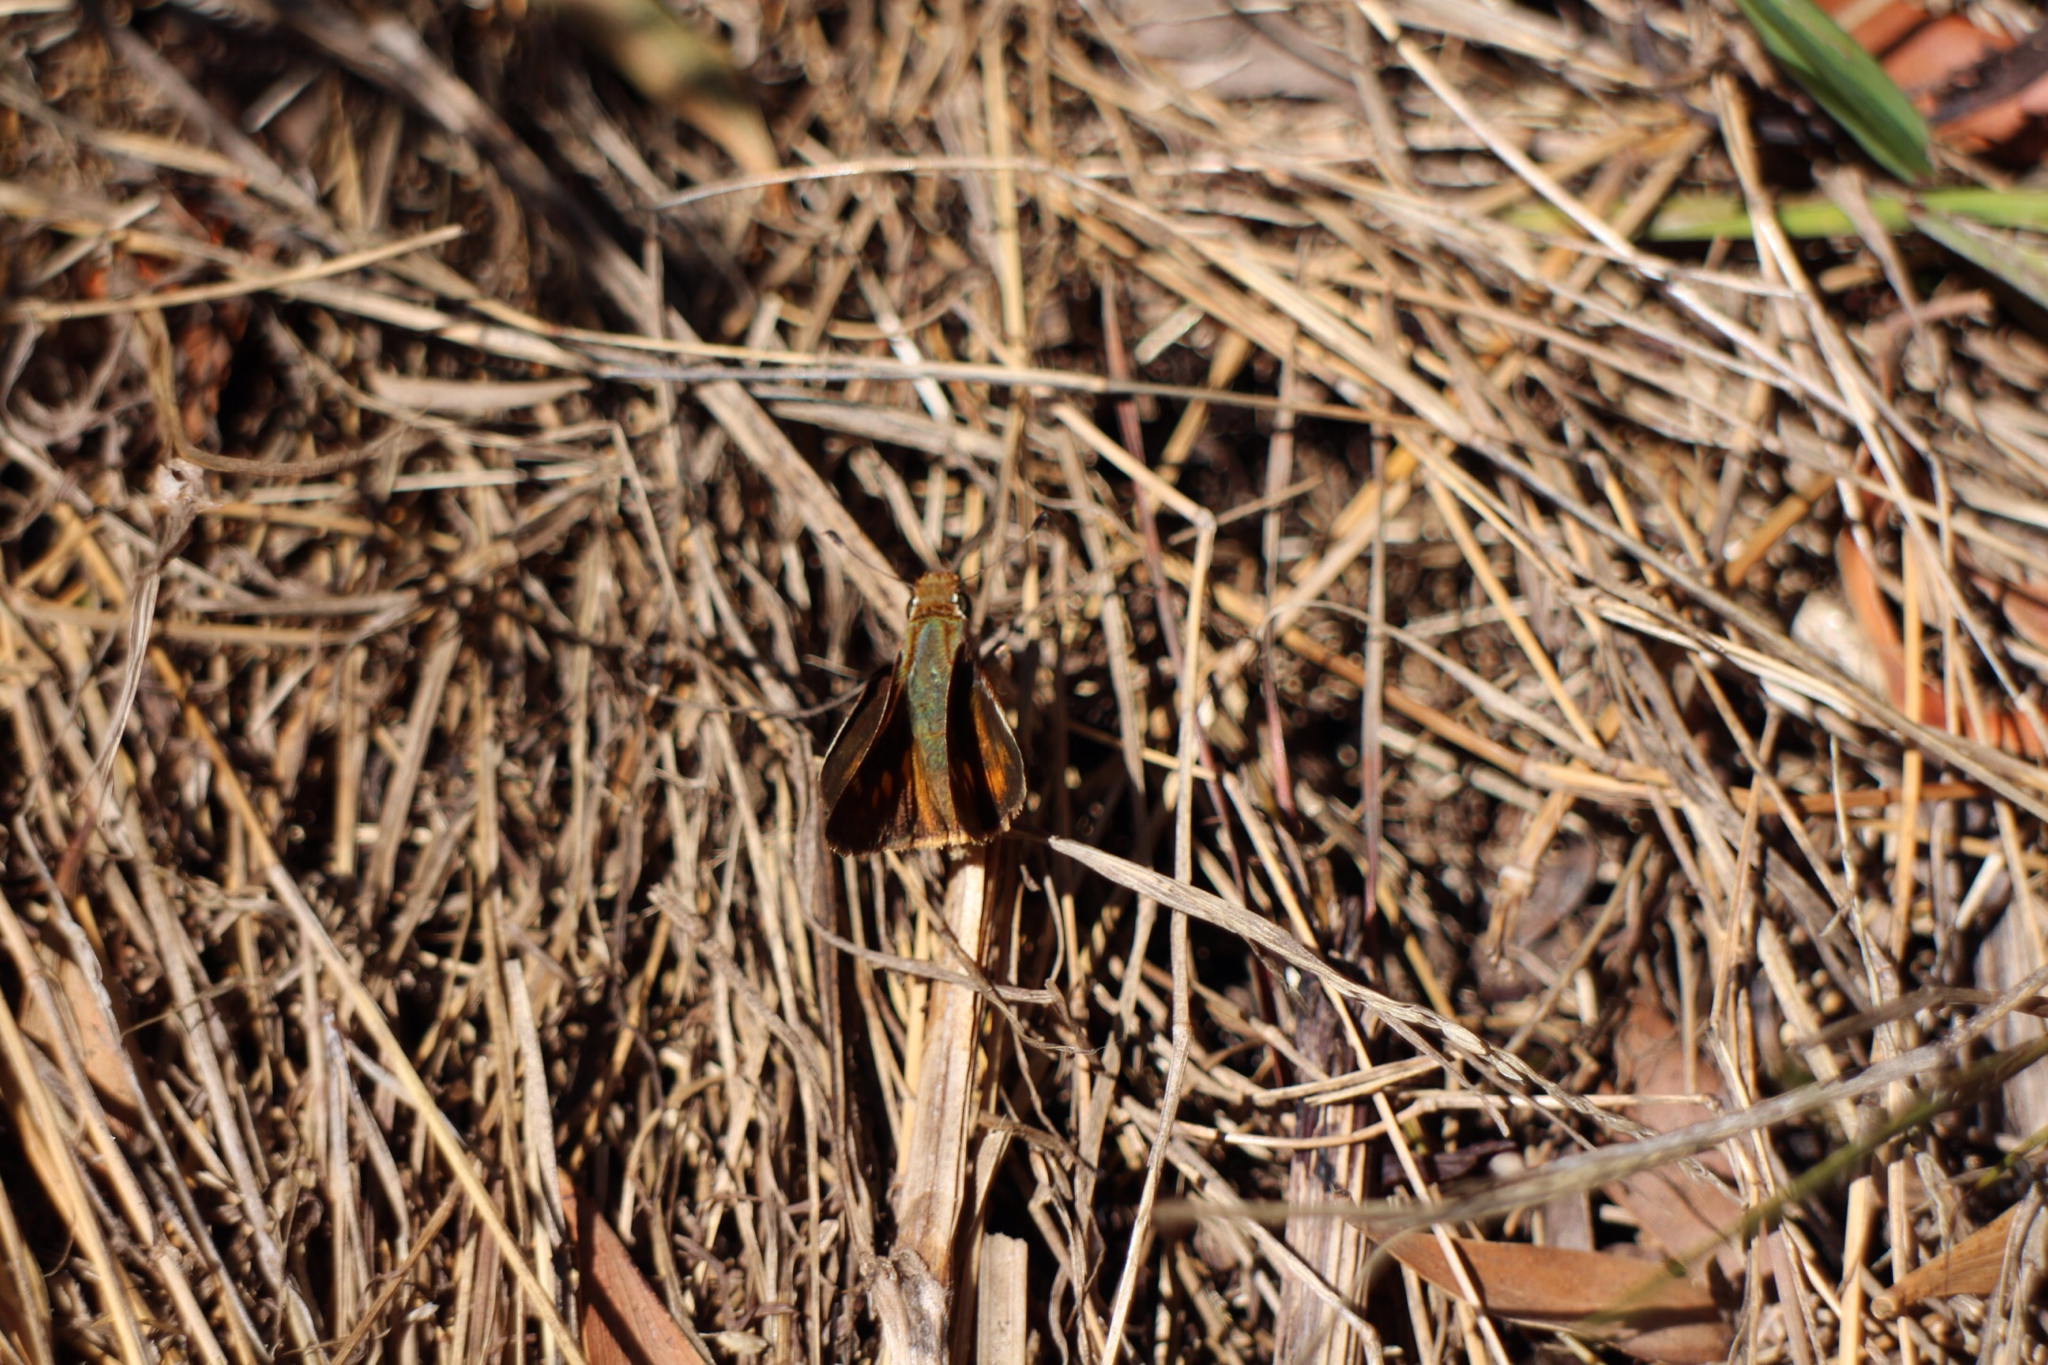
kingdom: Animalia
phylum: Arthropoda
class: Insecta
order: Lepidoptera
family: Hesperiidae
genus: Lon
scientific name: Lon melane
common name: Umber skipper
